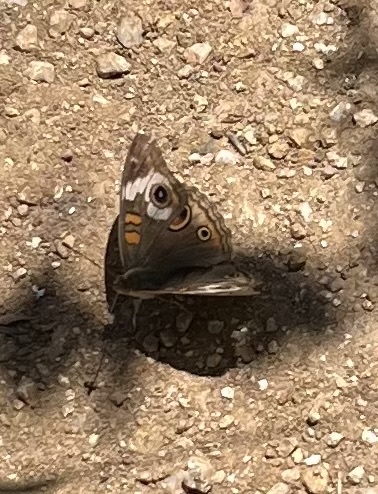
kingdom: Animalia
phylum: Arthropoda
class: Insecta
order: Lepidoptera
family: Nymphalidae
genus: Junonia
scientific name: Junonia grisea
